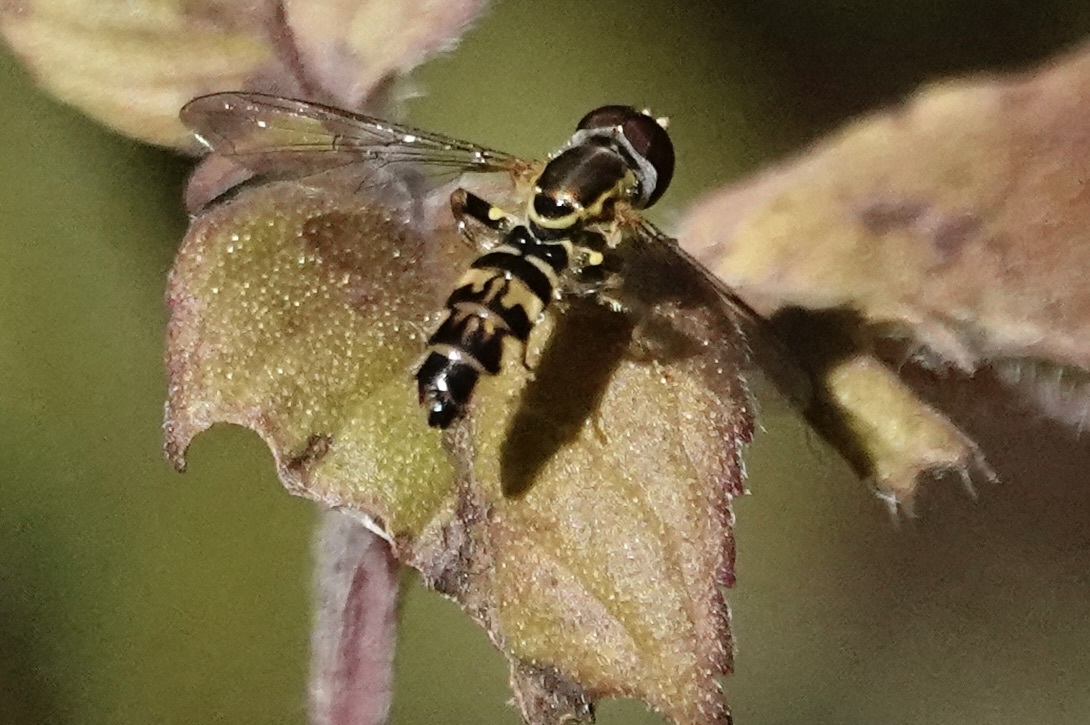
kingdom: Animalia
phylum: Arthropoda
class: Insecta
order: Diptera
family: Syrphidae
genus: Toxomerus
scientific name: Toxomerus geminatus
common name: Eastern calligrapher
